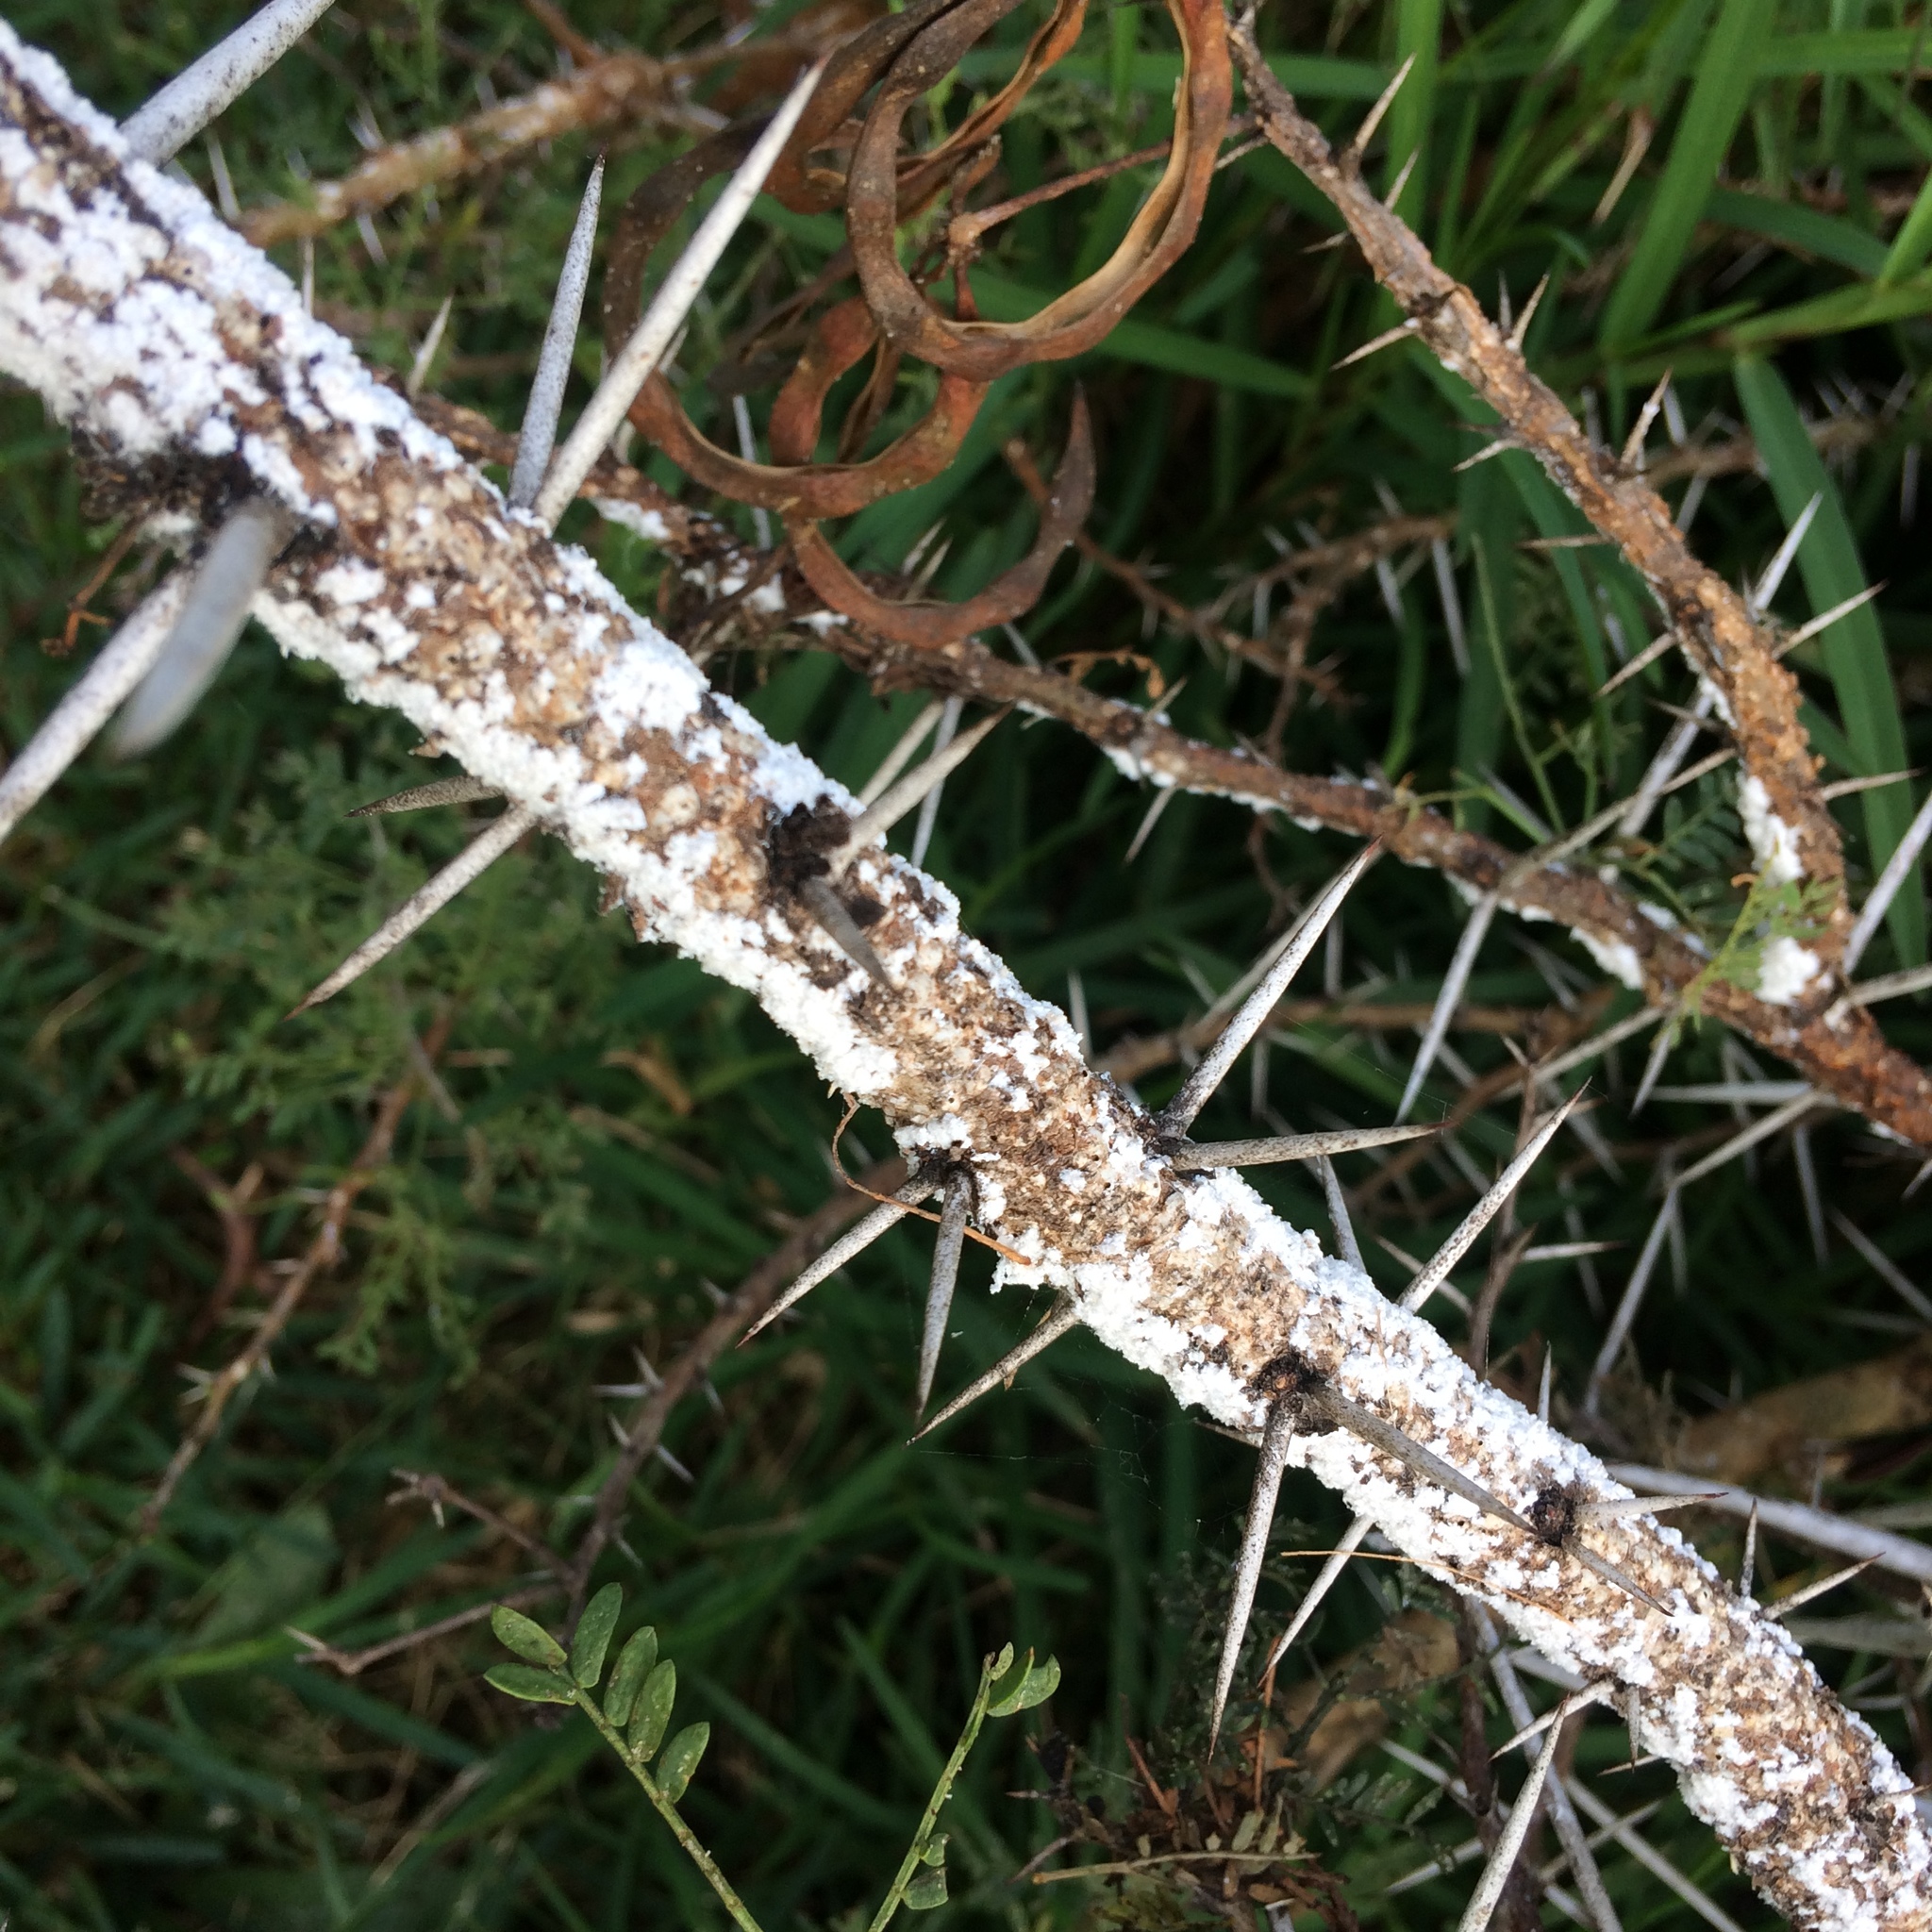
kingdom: Plantae
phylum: Tracheophyta
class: Magnoliopsida
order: Fabales
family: Fabaceae
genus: Vachellia
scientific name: Vachellia karroo
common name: Sweet thorn
